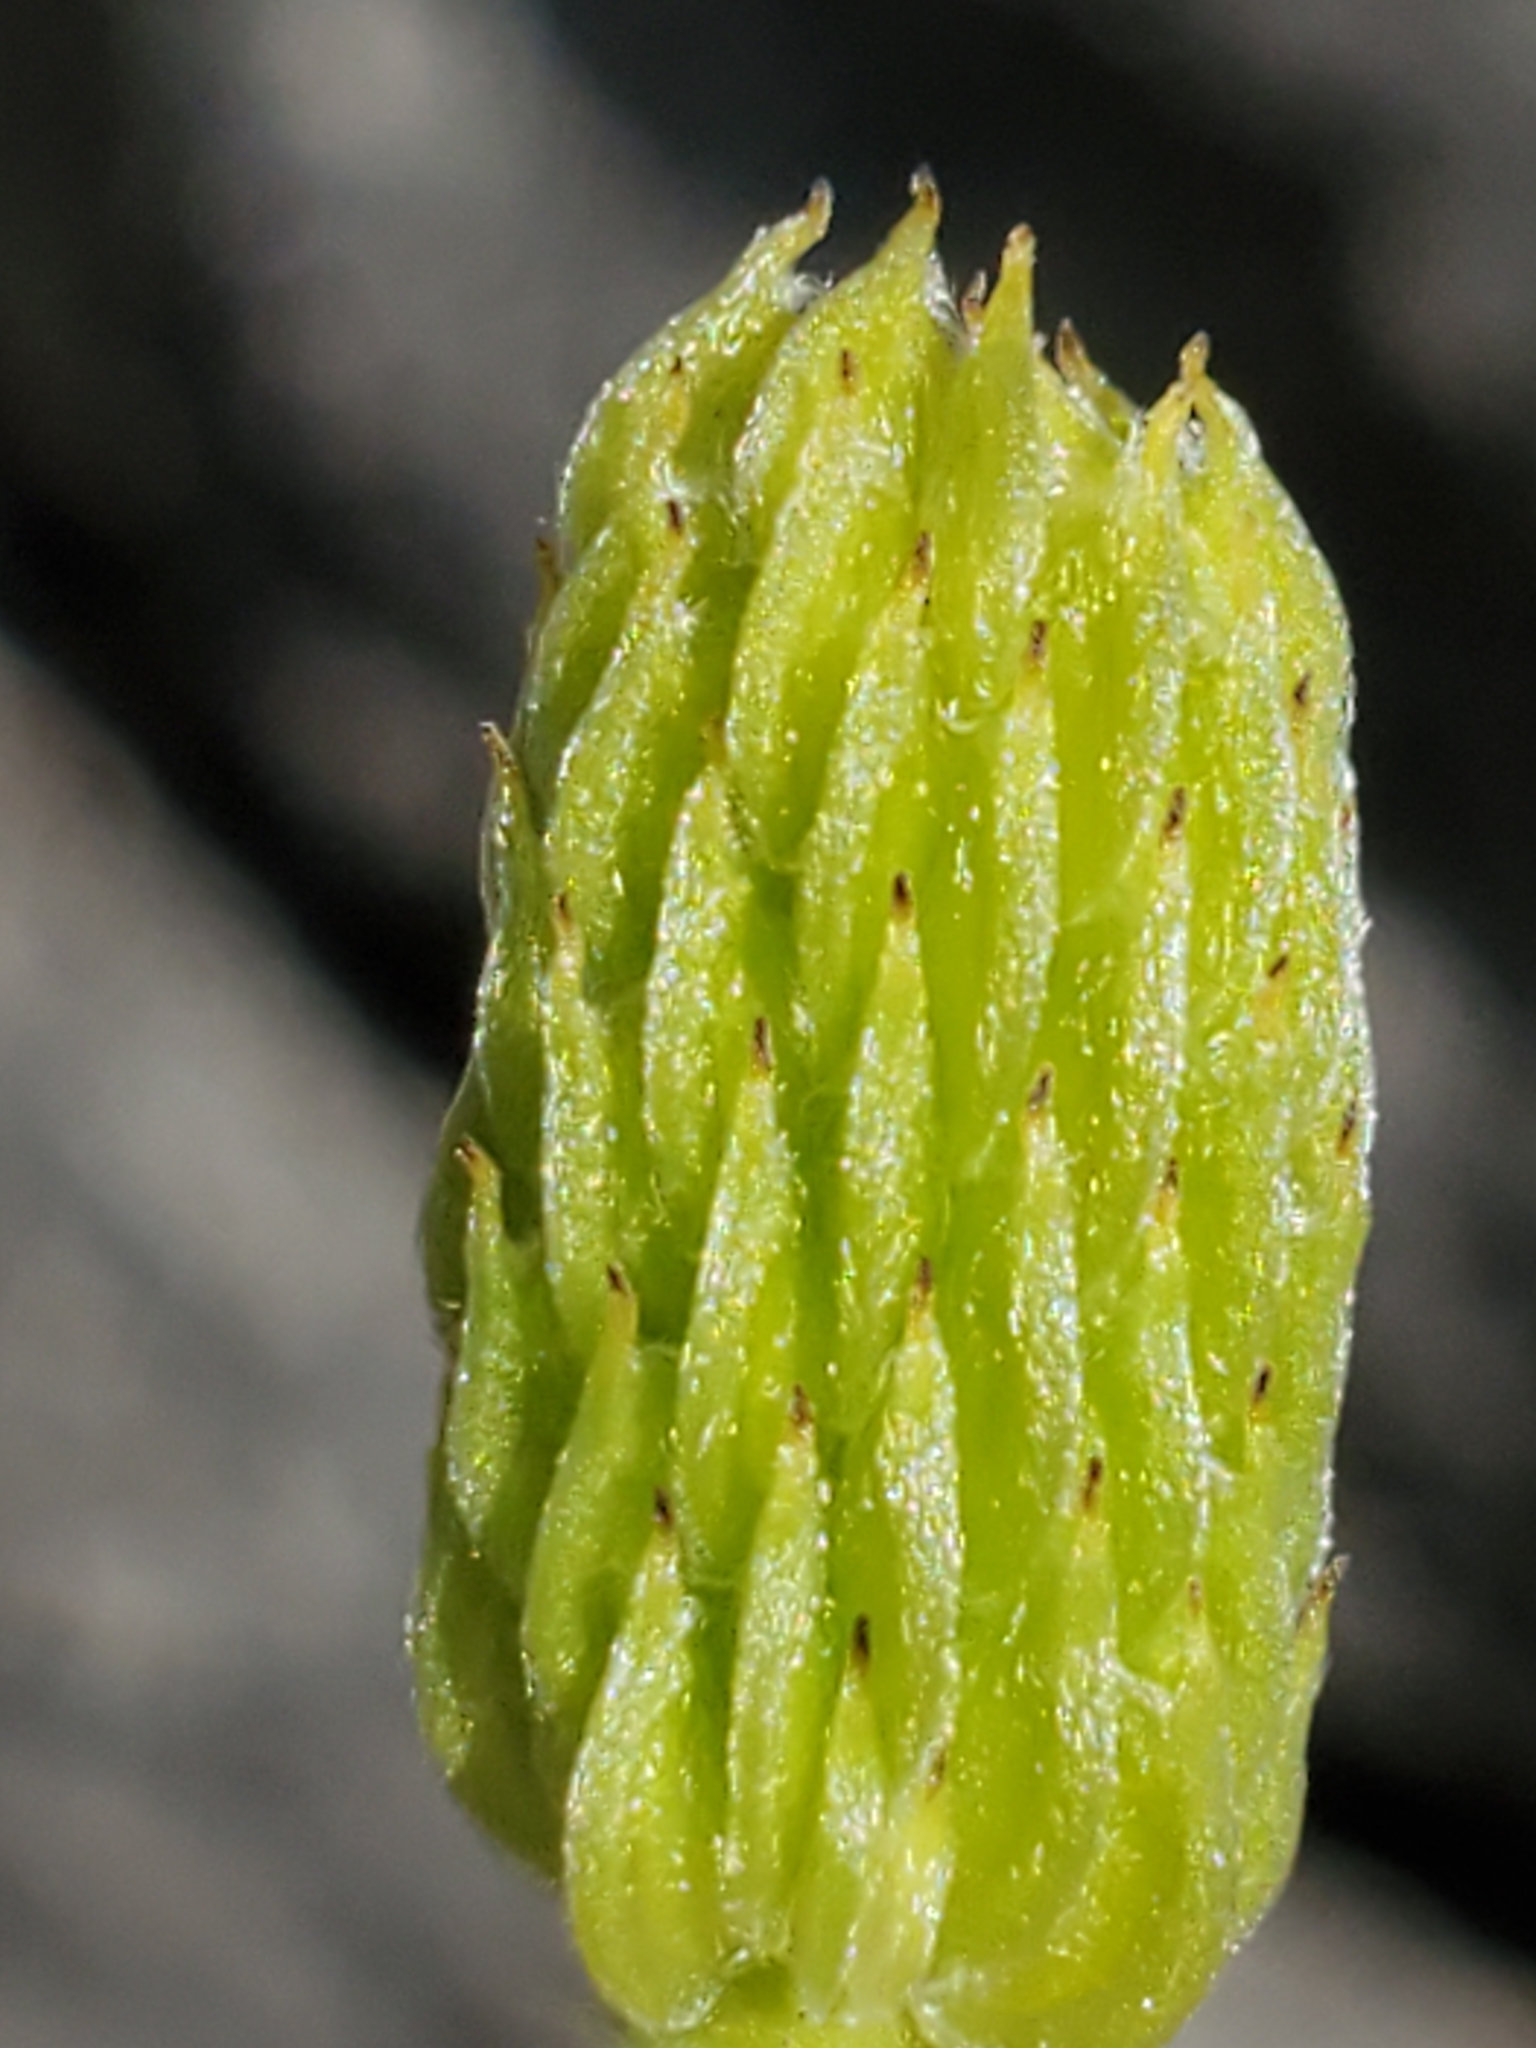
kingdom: Plantae
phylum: Tracheophyta
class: Magnoliopsida
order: Ranunculales
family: Ranunculaceae
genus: Anemone
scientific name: Anemone edwardsiana
